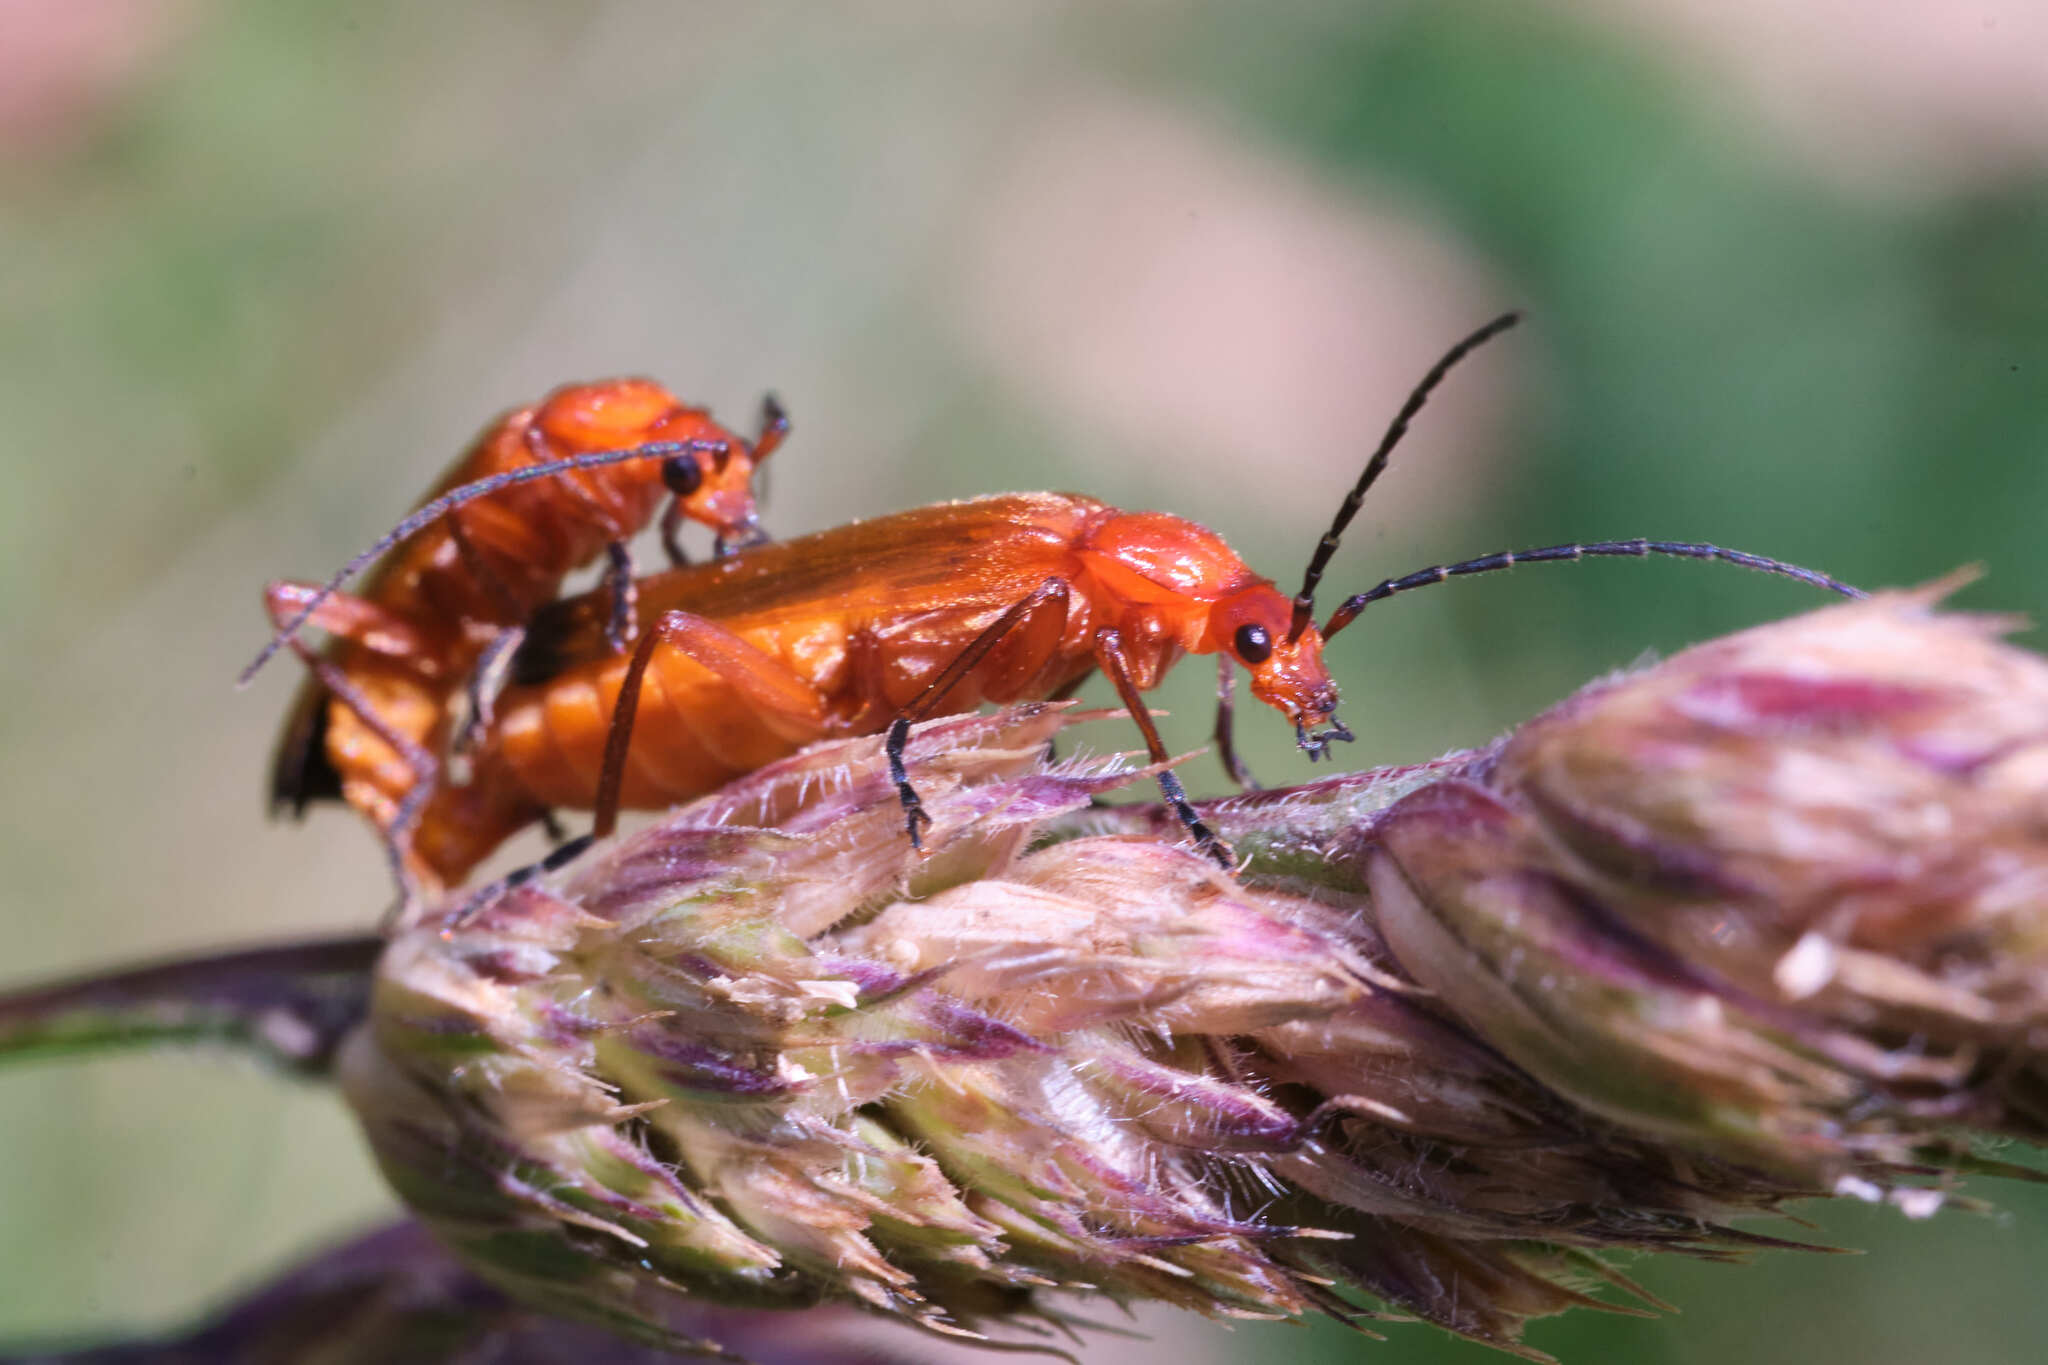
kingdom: Animalia
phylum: Arthropoda
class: Insecta
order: Coleoptera
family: Cantharidae
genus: Rhagonycha
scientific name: Rhagonycha fulva
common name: Common red soldier beetle
